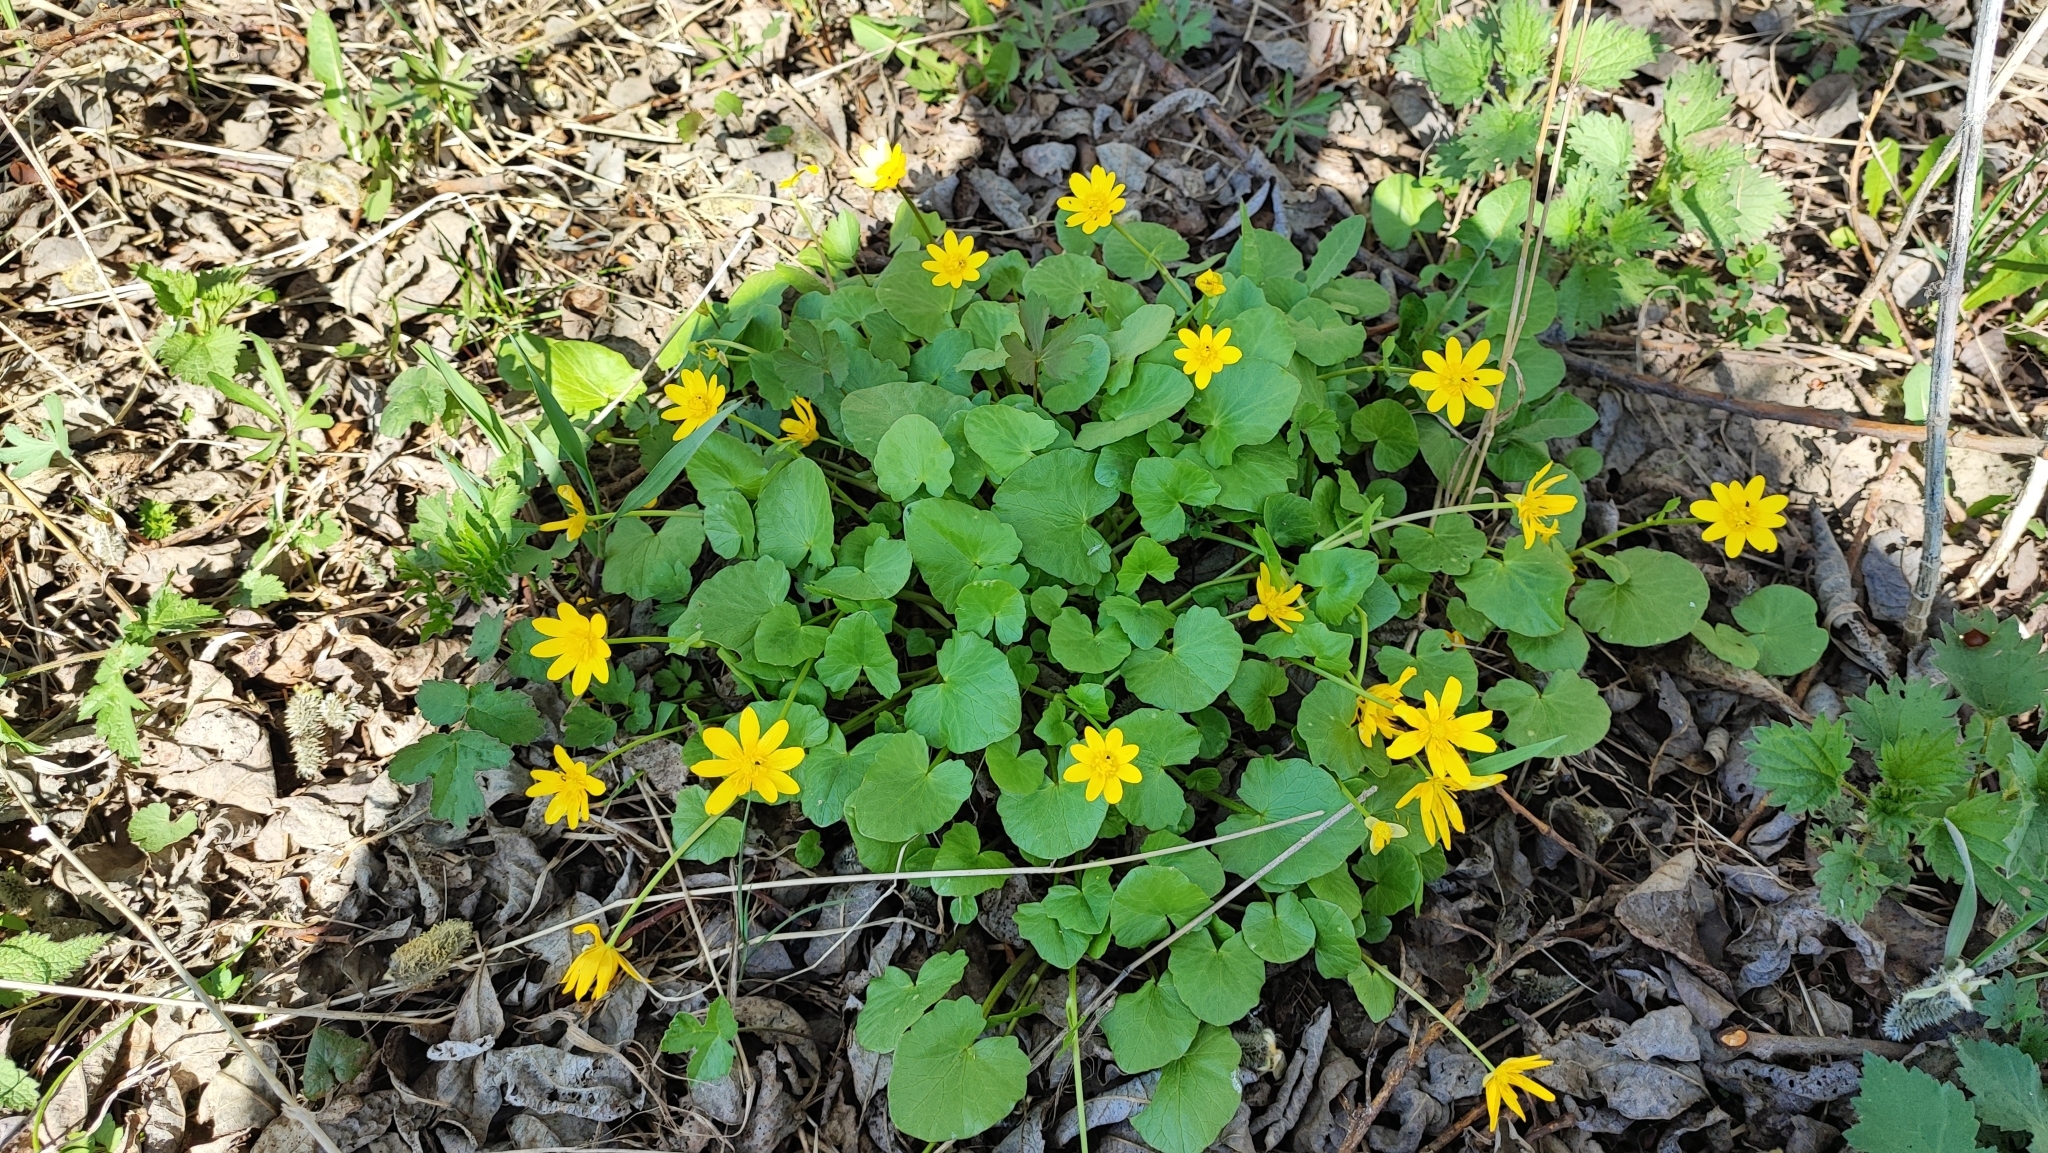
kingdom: Plantae
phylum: Tracheophyta
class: Magnoliopsida
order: Ranunculales
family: Ranunculaceae
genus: Ficaria
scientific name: Ficaria verna
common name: Lesser celandine
